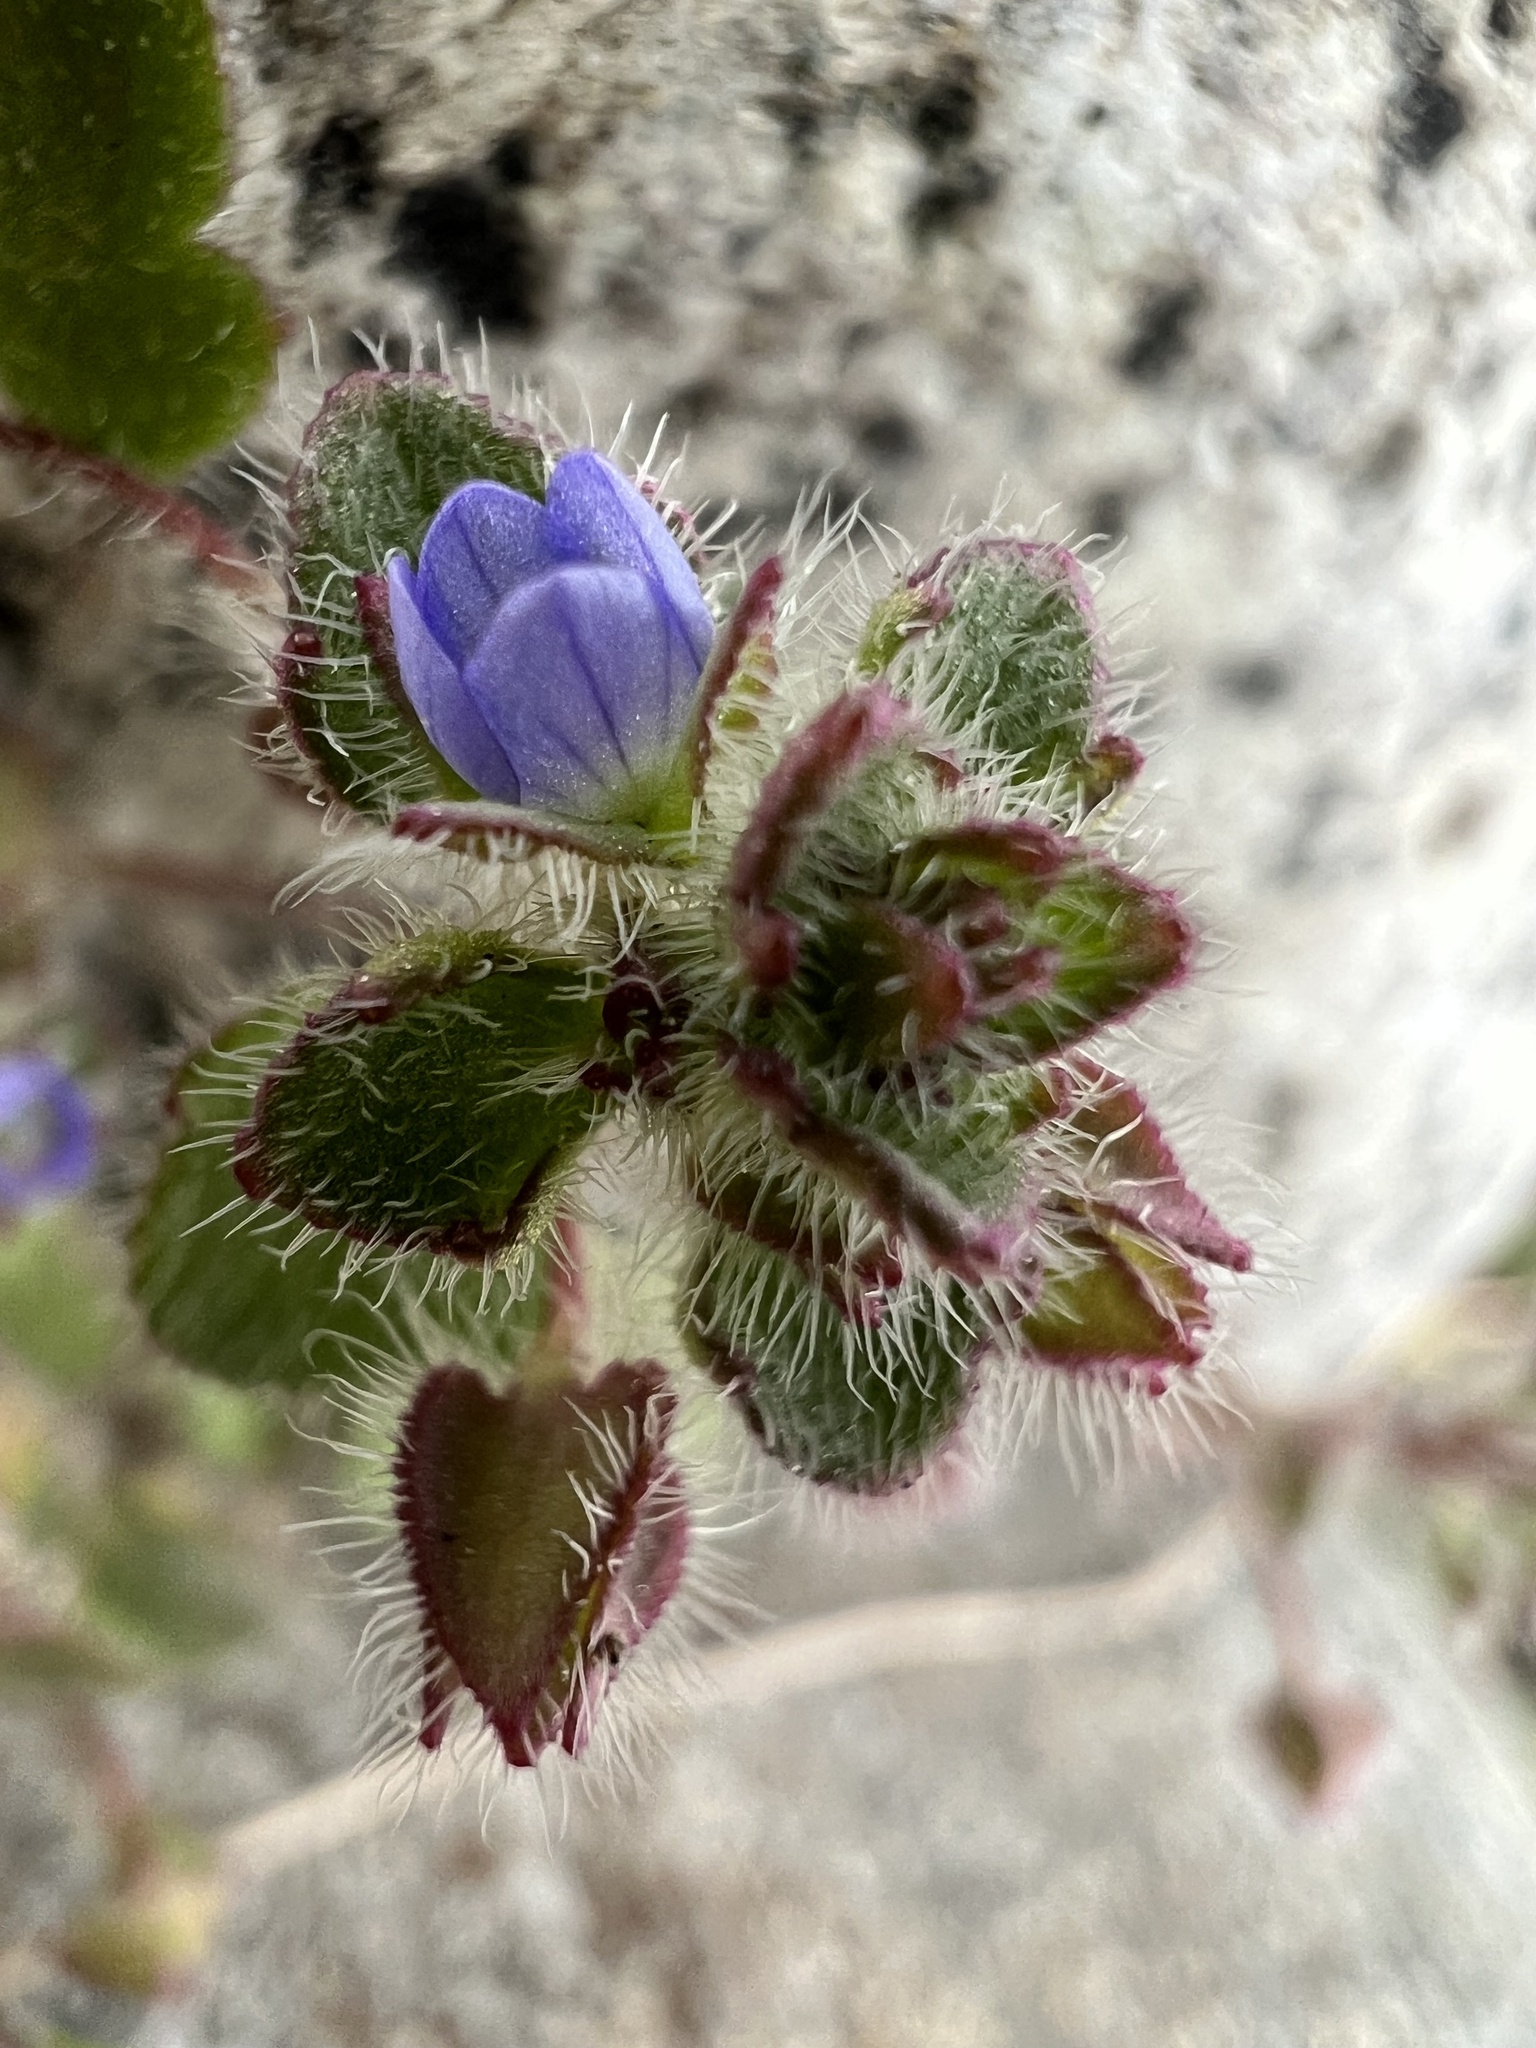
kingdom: Plantae
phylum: Tracheophyta
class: Magnoliopsida
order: Lamiales
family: Plantaginaceae
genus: Veronica
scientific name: Veronica hederifolia
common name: Ivy-leaved speedwell
